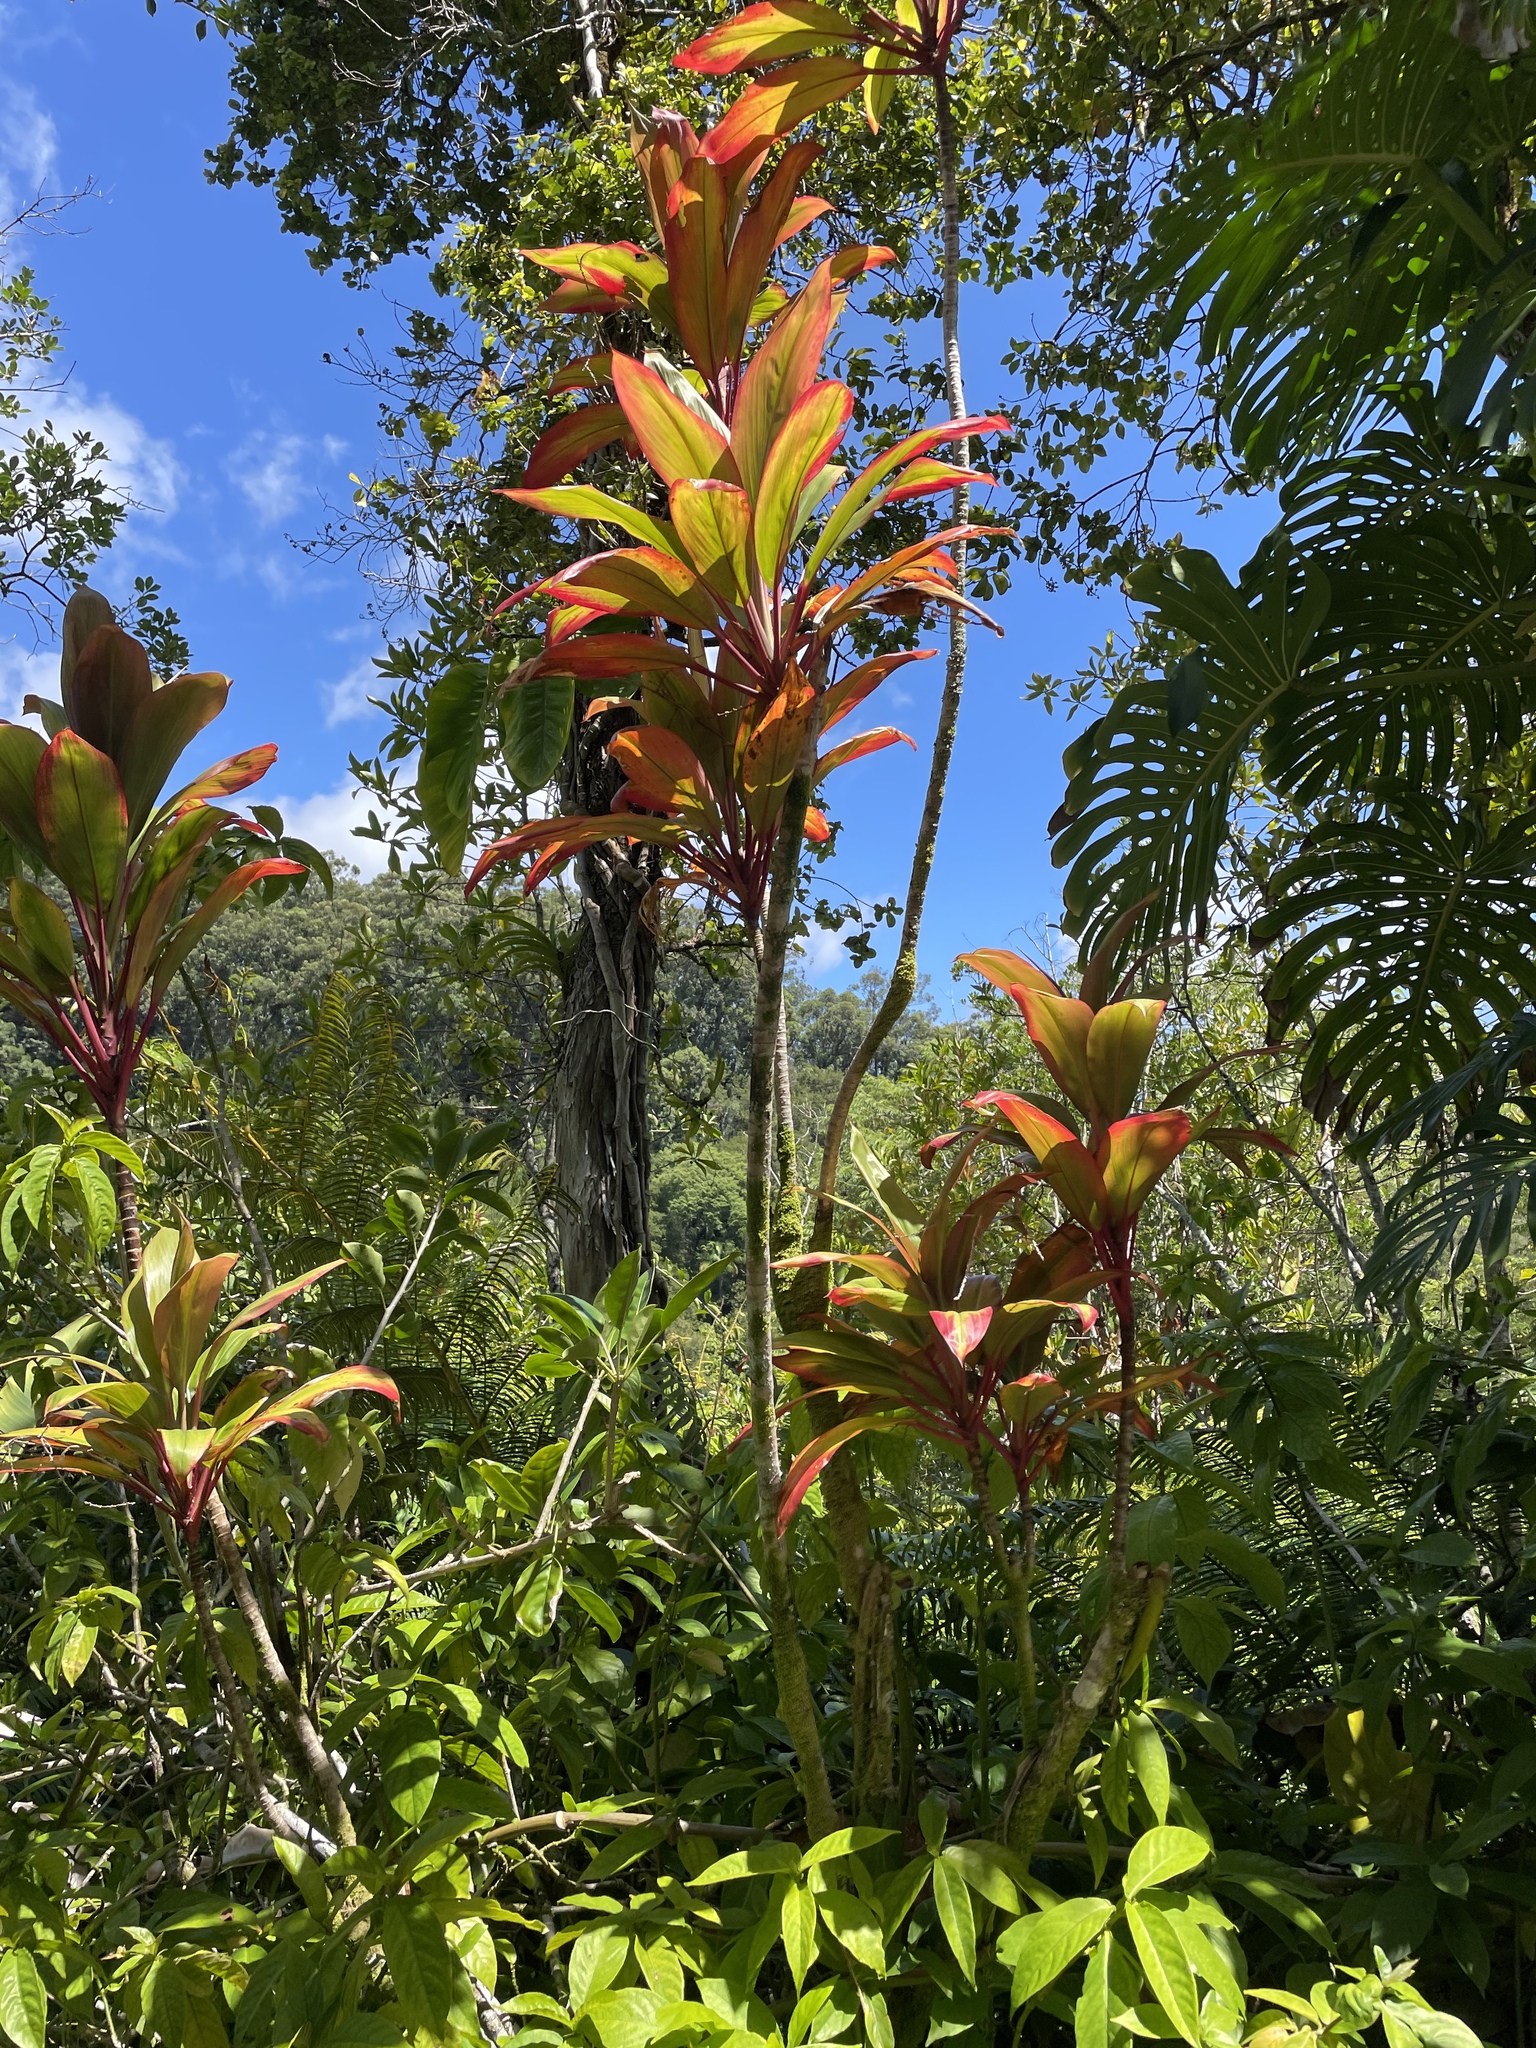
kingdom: Plantae
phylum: Tracheophyta
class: Liliopsida
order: Asparagales
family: Asparagaceae
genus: Cordyline
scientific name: Cordyline fruticosa
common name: Good-luck-plant
